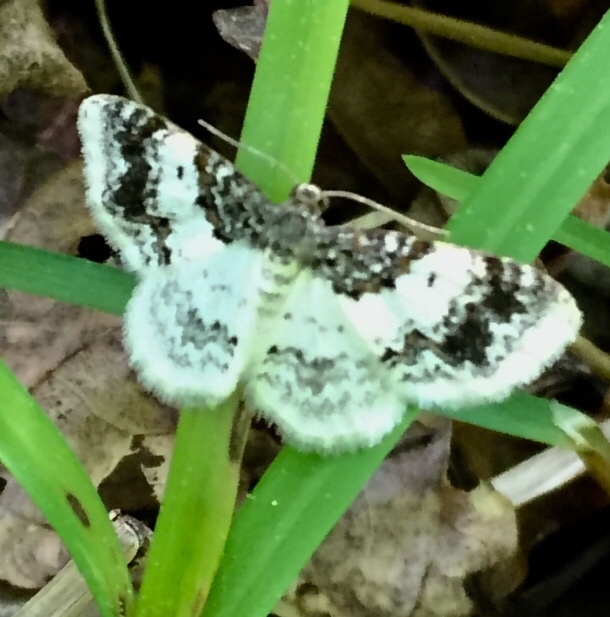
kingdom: Animalia
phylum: Arthropoda
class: Insecta
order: Lepidoptera
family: Geometridae
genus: Hydrelia
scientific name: Hydrelia condensata
